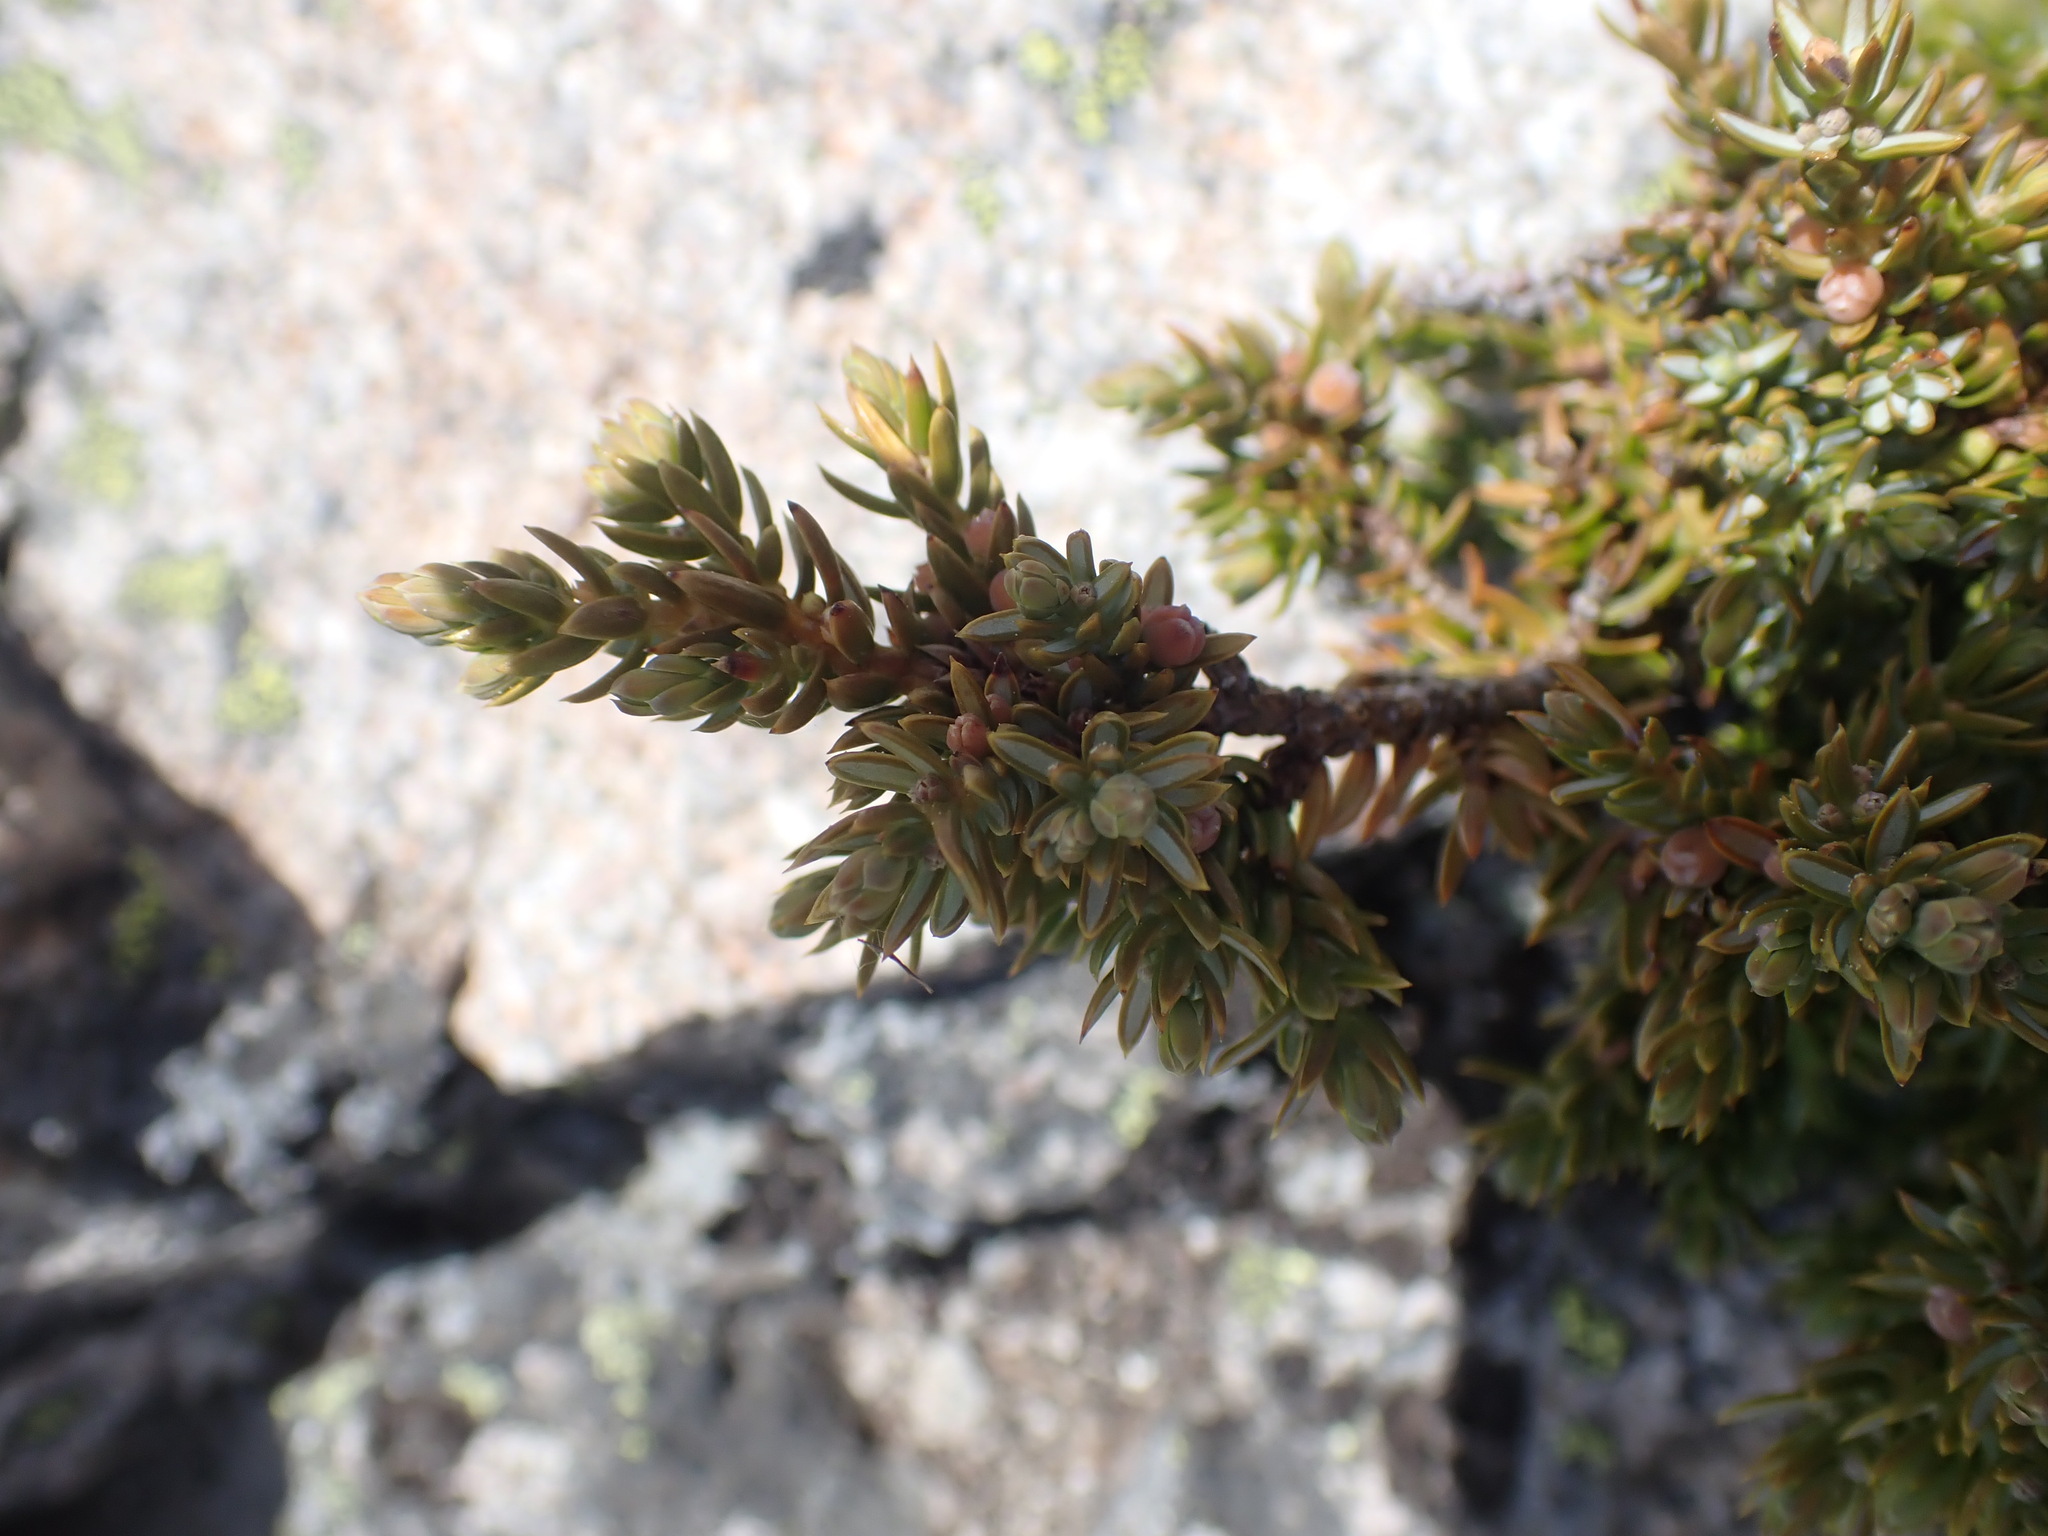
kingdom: Plantae
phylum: Tracheophyta
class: Pinopsida
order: Pinales
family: Cupressaceae
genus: Juniperus
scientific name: Juniperus communis
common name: Common juniper
